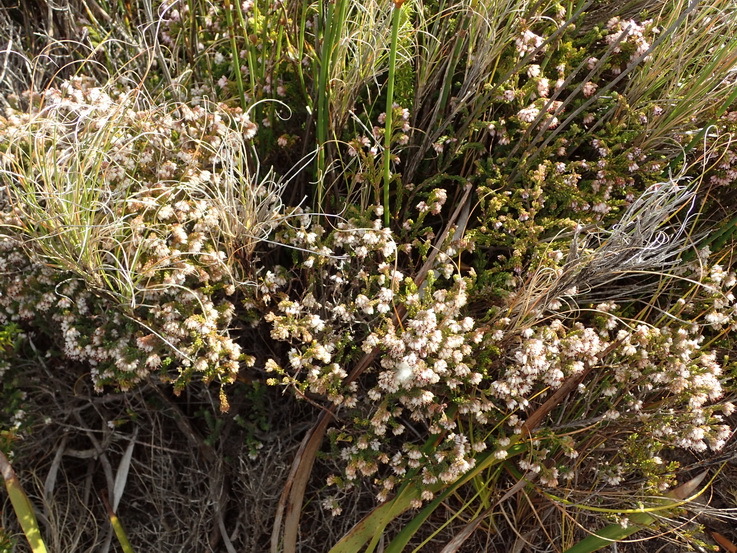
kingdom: Plantae
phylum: Tracheophyta
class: Magnoliopsida
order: Ericales
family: Ericaceae
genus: Erica
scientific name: Erica ericoides
